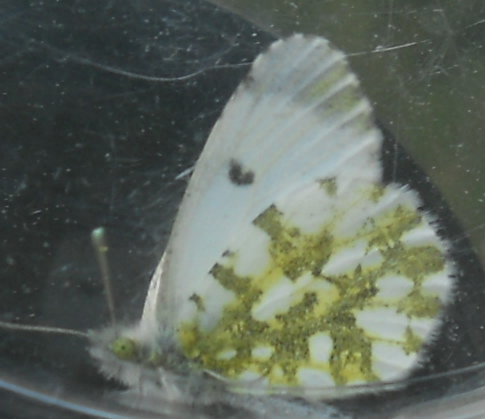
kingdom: Animalia
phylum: Arthropoda
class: Insecta
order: Lepidoptera
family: Pieridae
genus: Anthocharis
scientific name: Anthocharis cardamines
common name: Orange-tip
